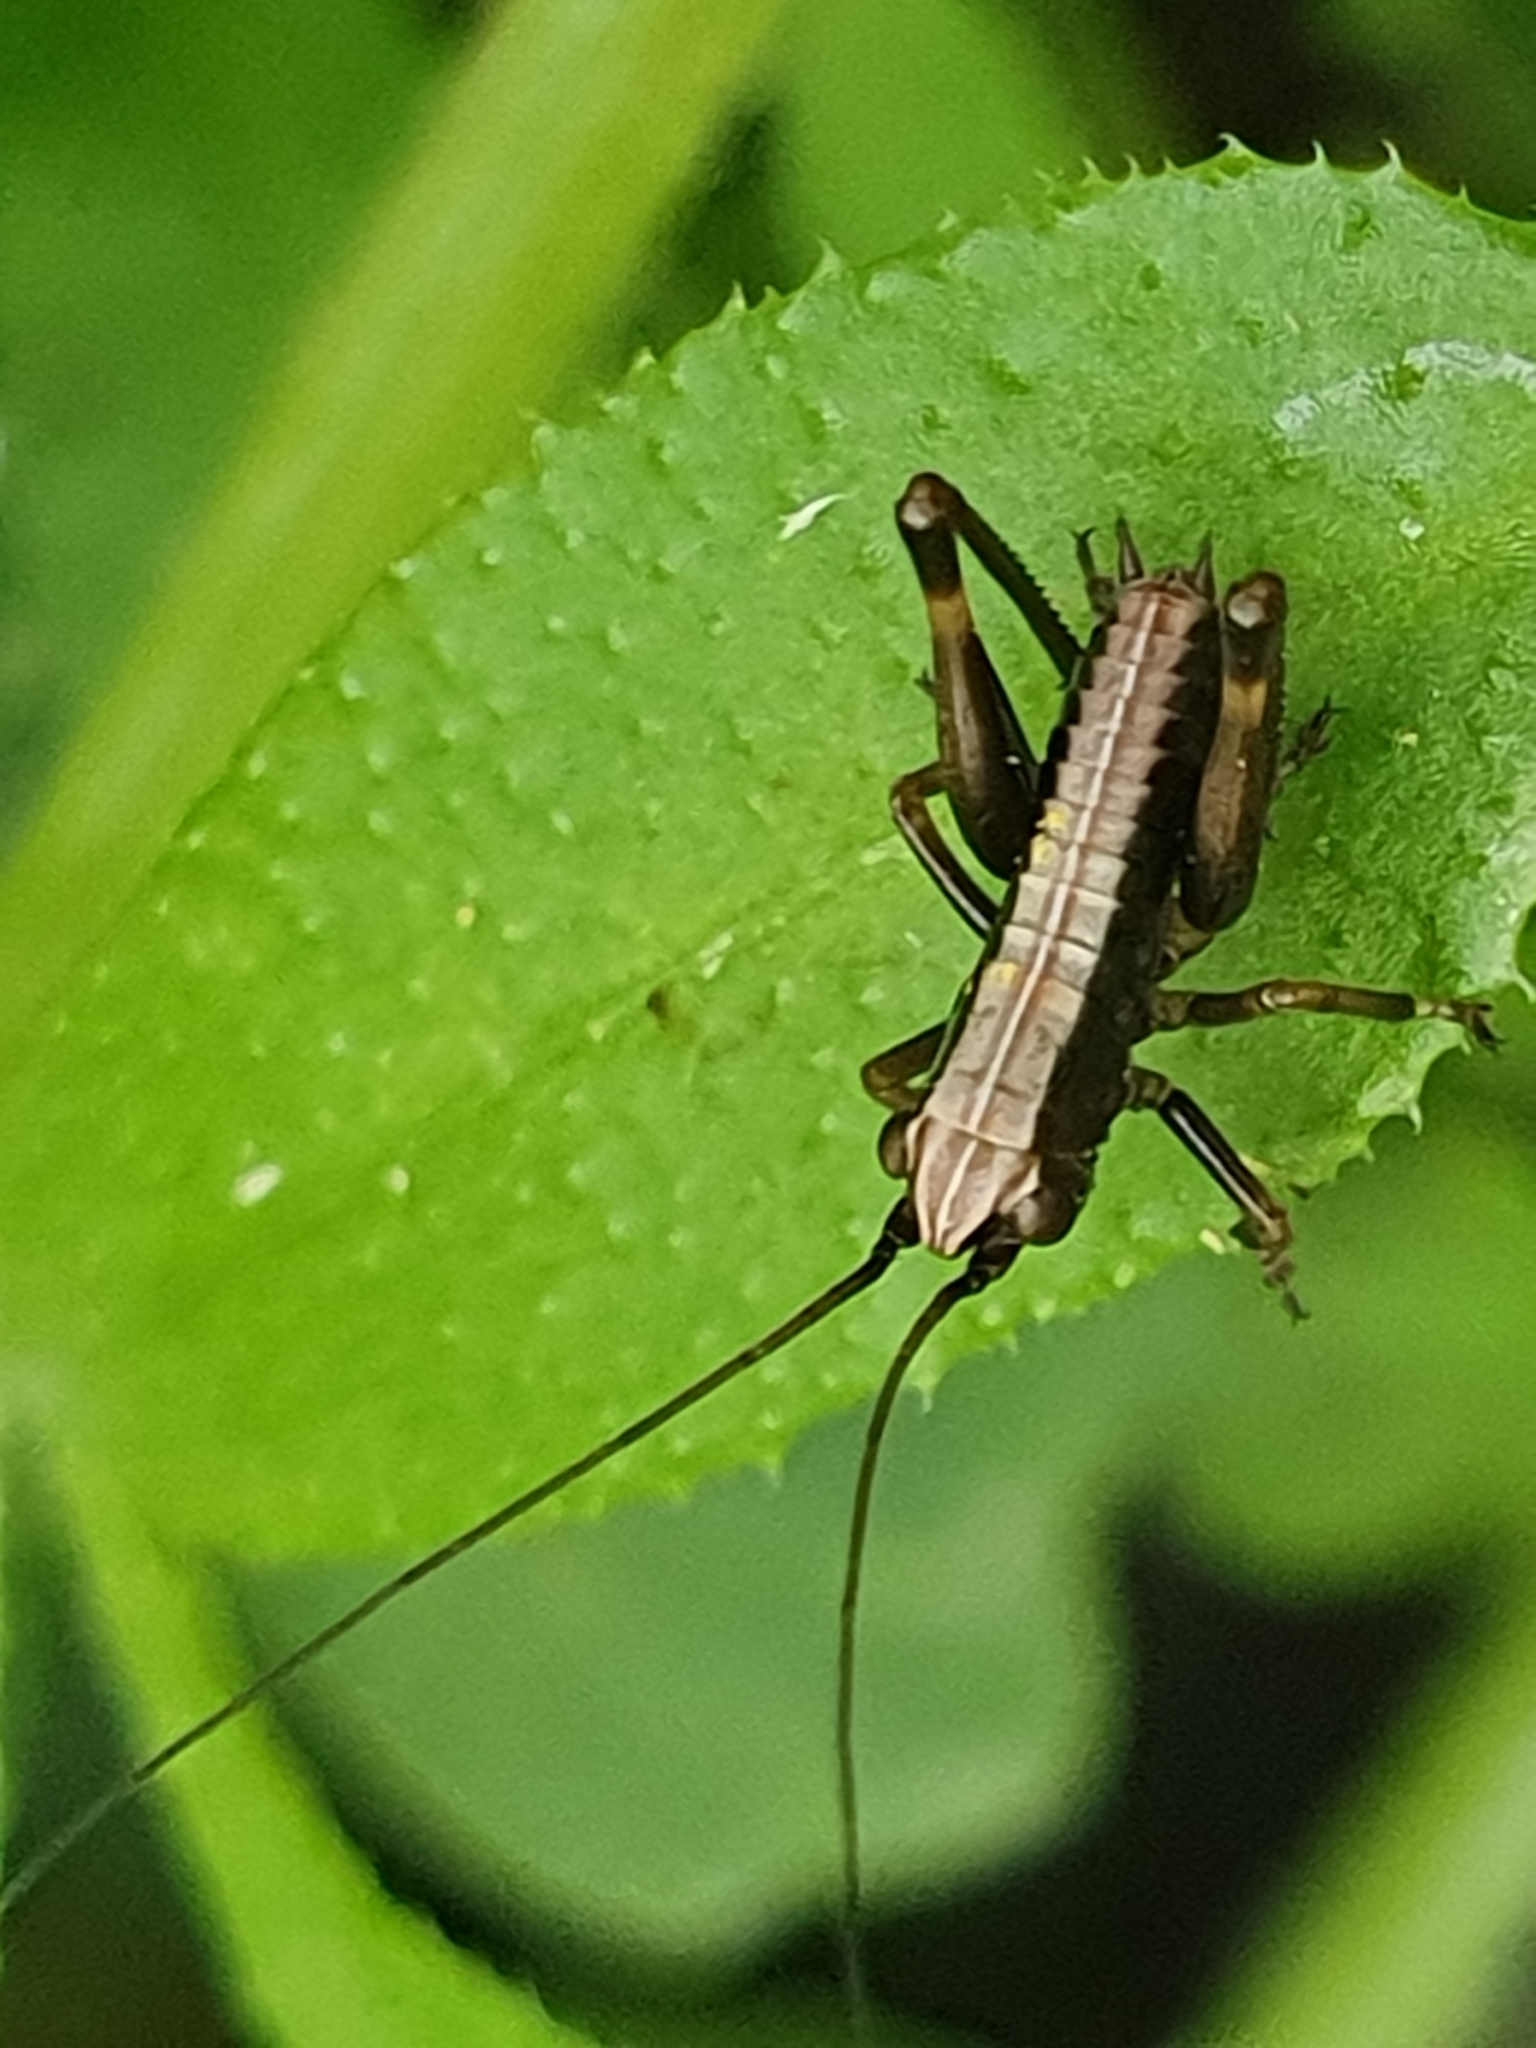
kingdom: Animalia
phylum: Arthropoda
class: Insecta
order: Orthoptera
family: Tettigoniidae
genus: Pholidoptera
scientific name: Pholidoptera griseoaptera
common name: Dark bush-cricket
